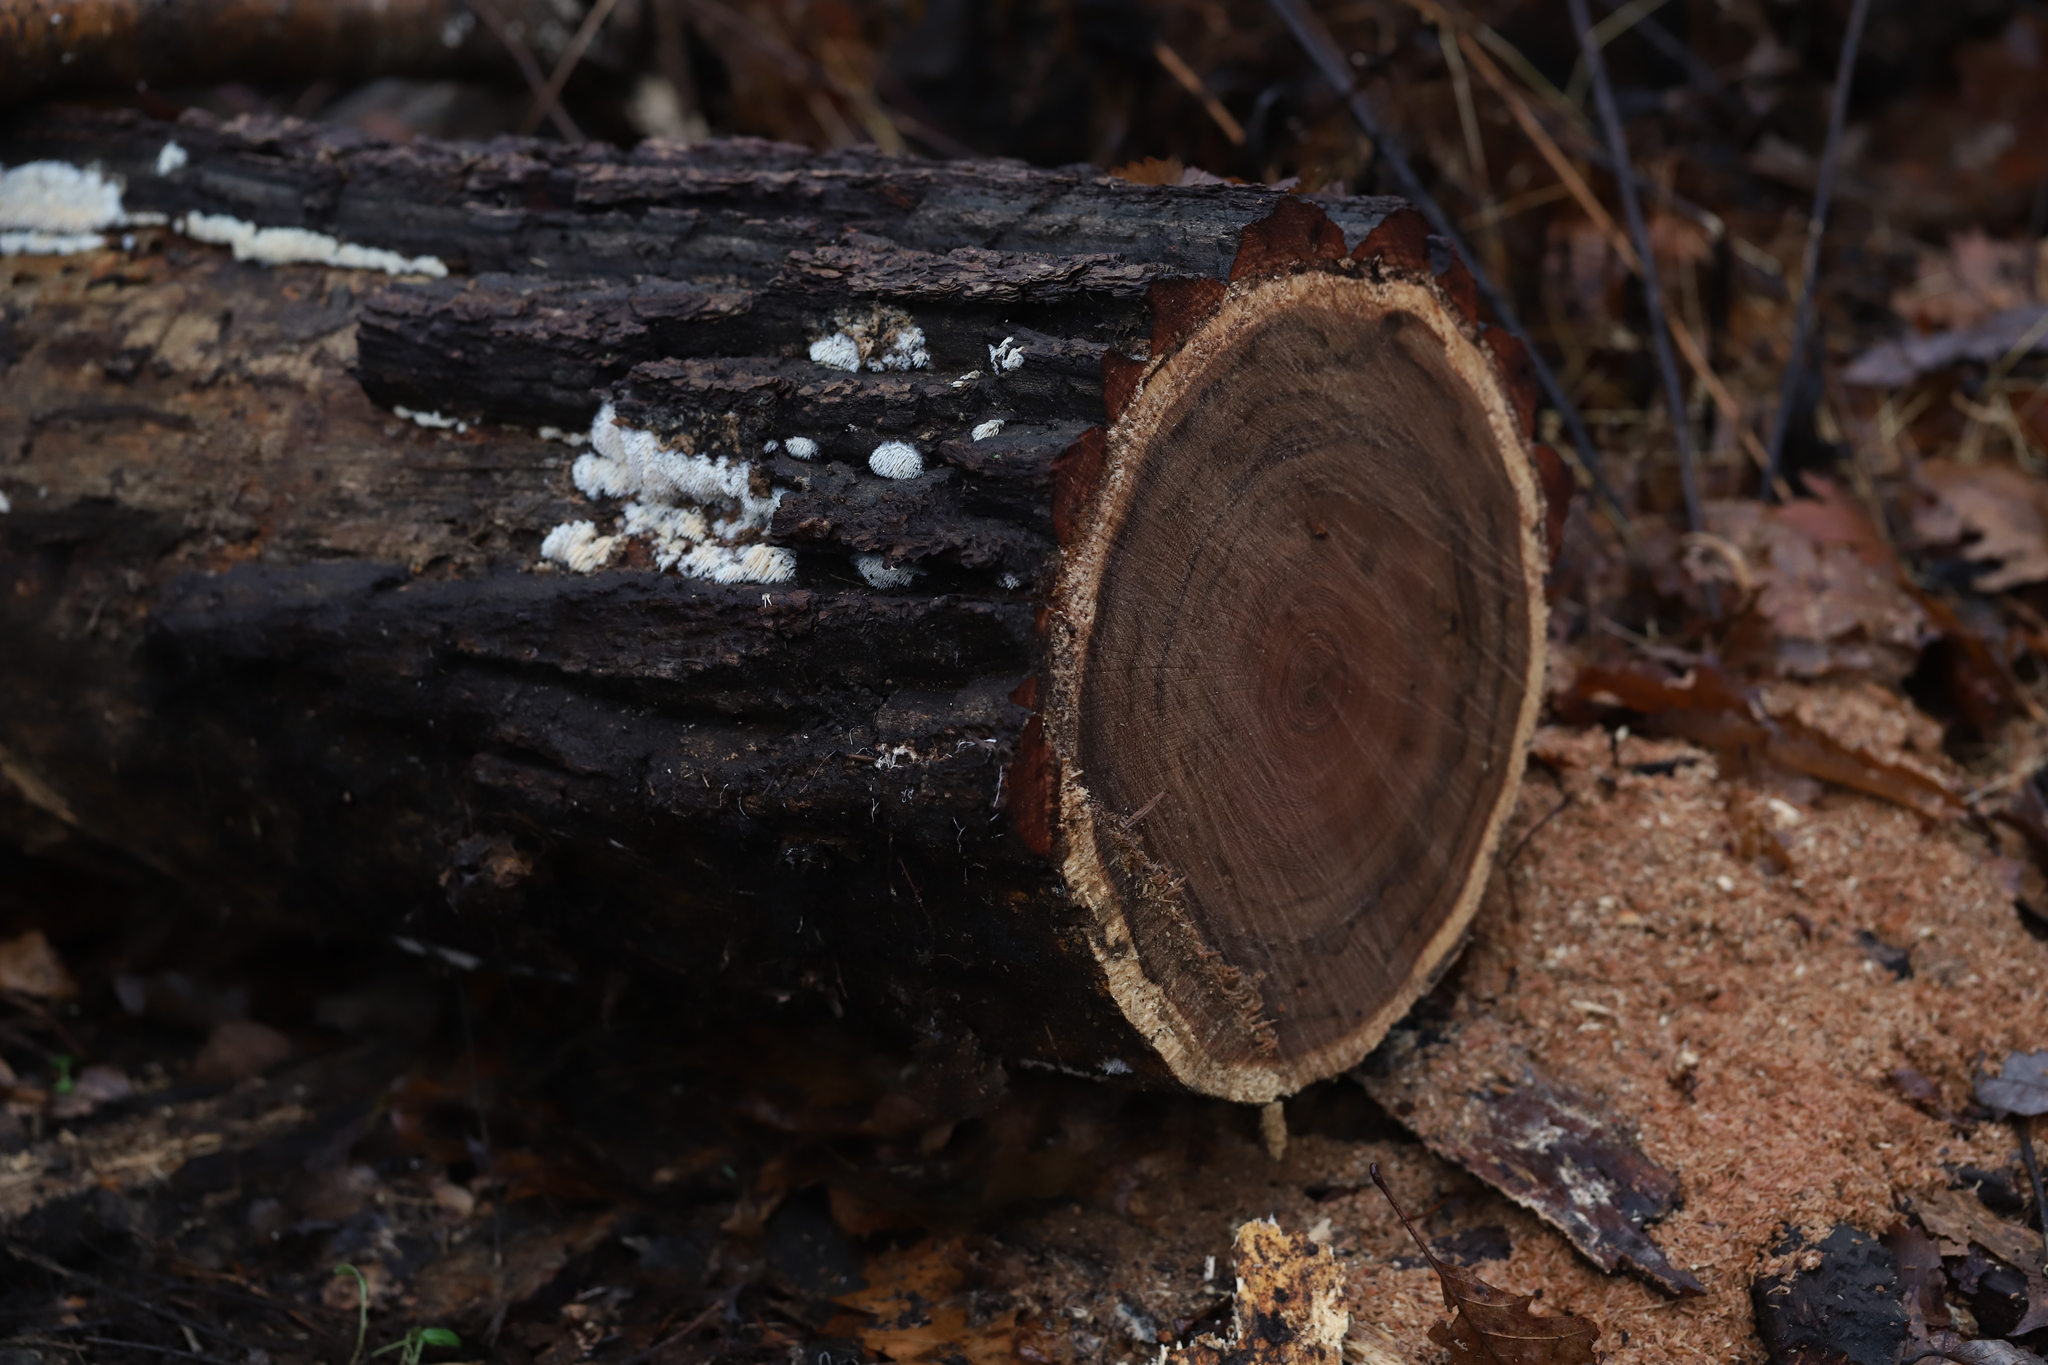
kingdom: Fungi
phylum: Basidiomycota
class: Agaricomycetes
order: Agaricales
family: Radulomycetaceae
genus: Radulomyces
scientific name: Radulomyces copelandii
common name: Asian beauty
